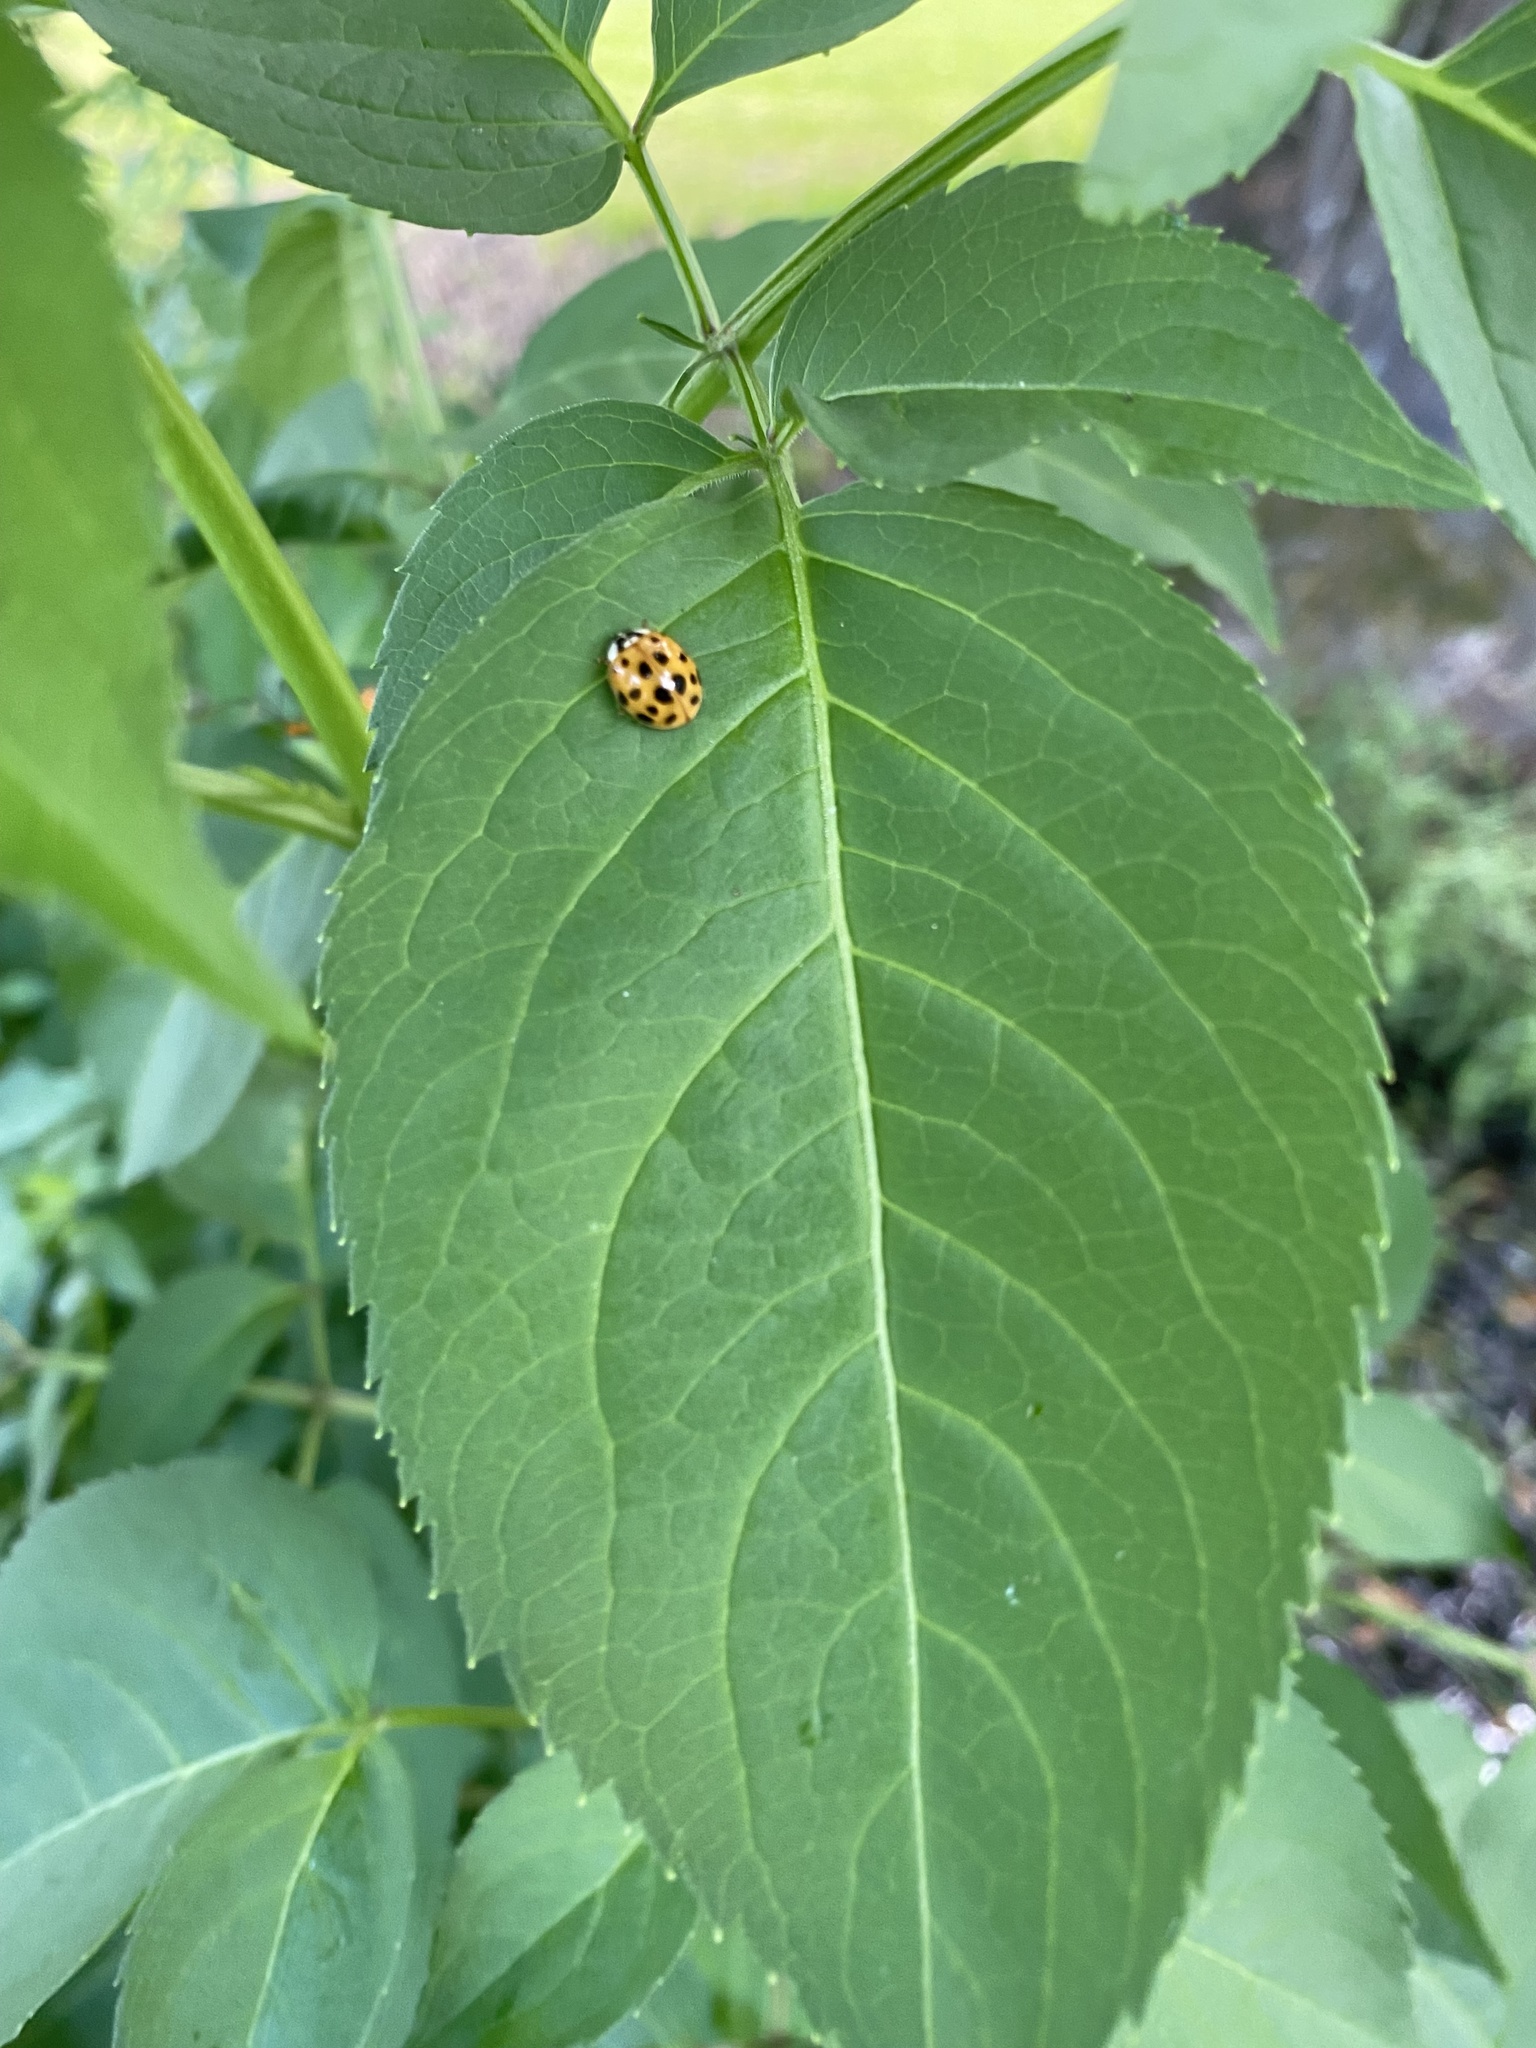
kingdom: Animalia
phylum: Arthropoda
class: Insecta
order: Coleoptera
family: Coccinellidae
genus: Harmonia
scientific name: Harmonia axyridis
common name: Harlequin ladybird
